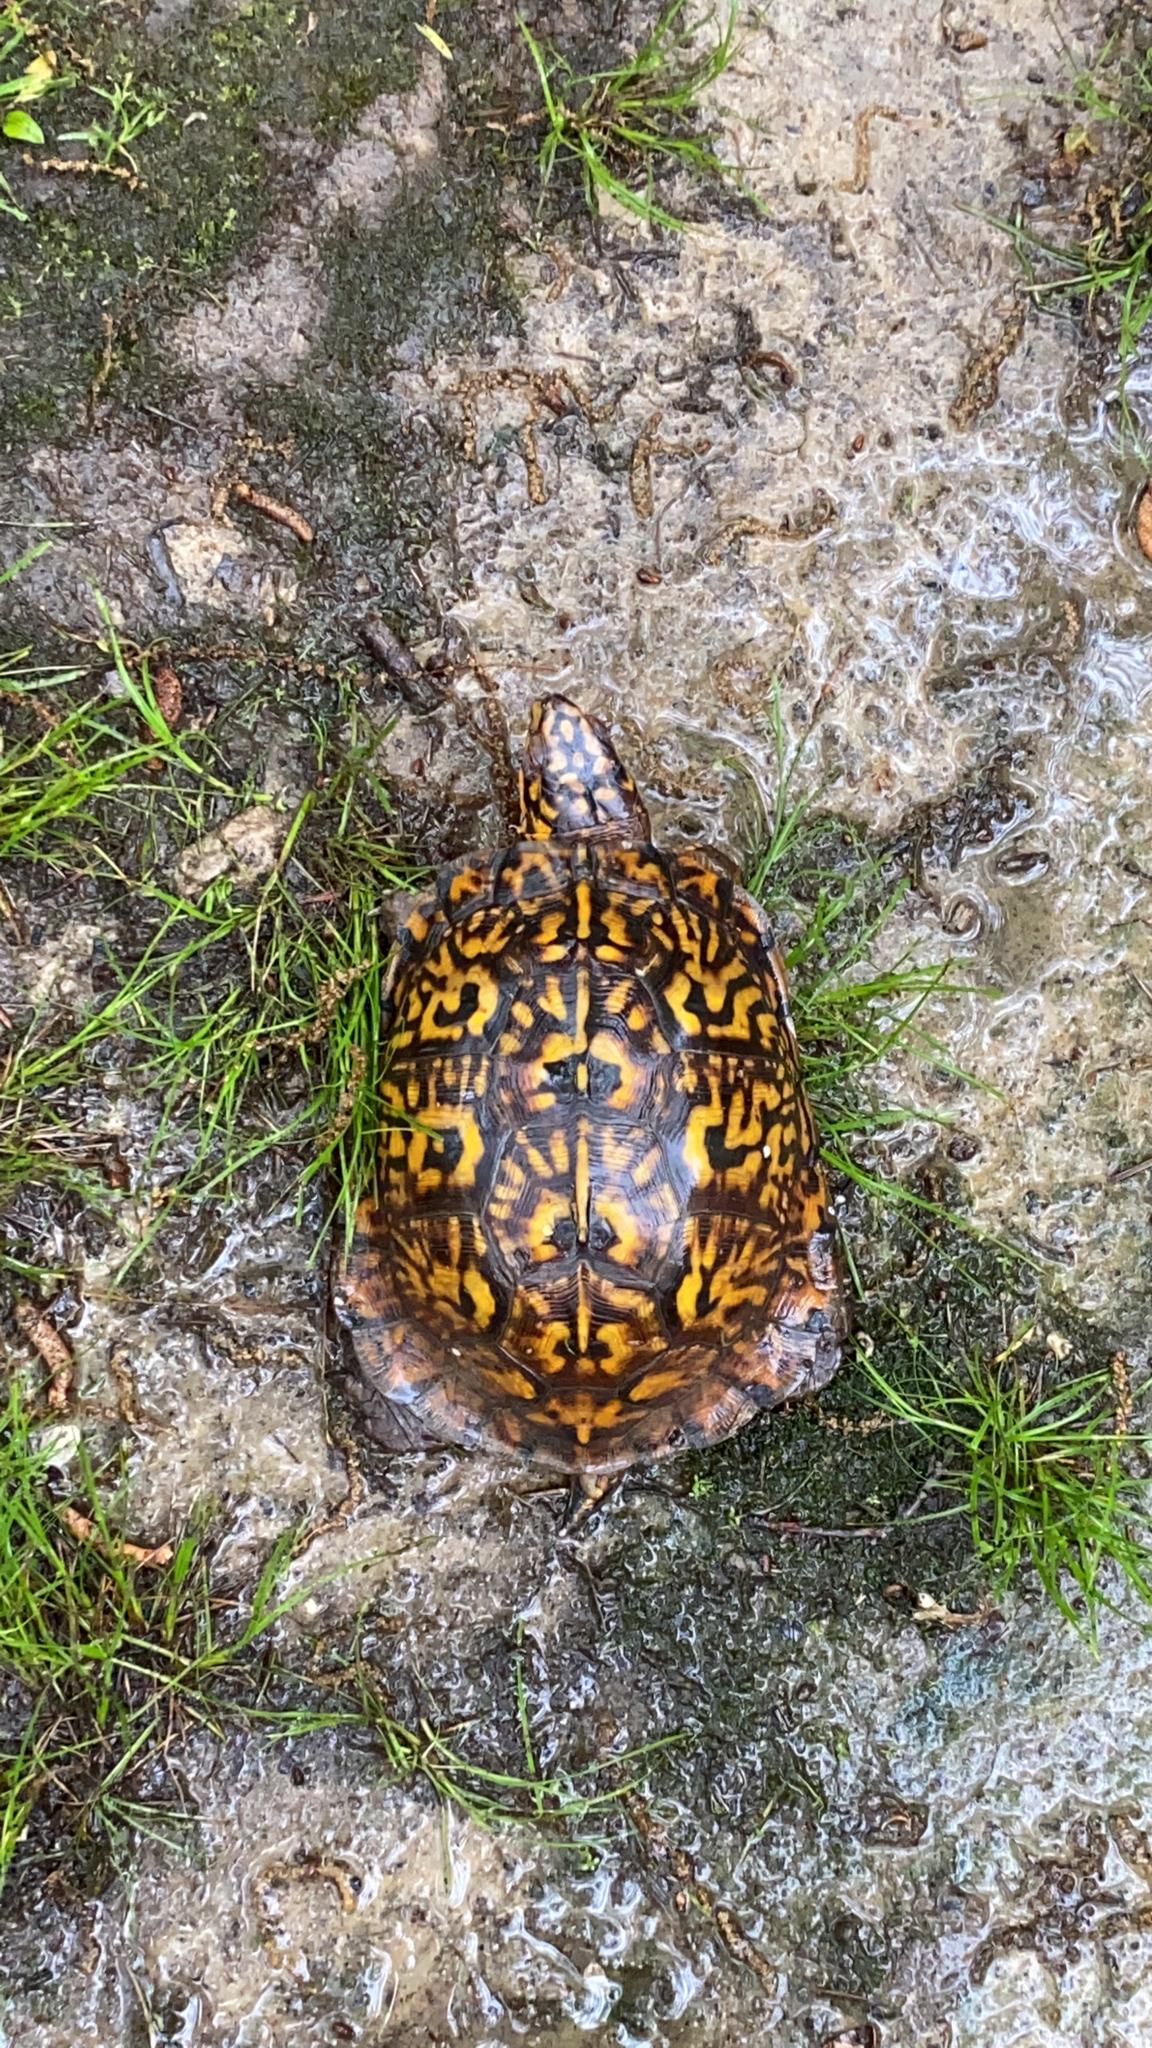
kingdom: Animalia
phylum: Chordata
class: Testudines
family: Emydidae
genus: Terrapene
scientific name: Terrapene carolina
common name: Common box turtle
